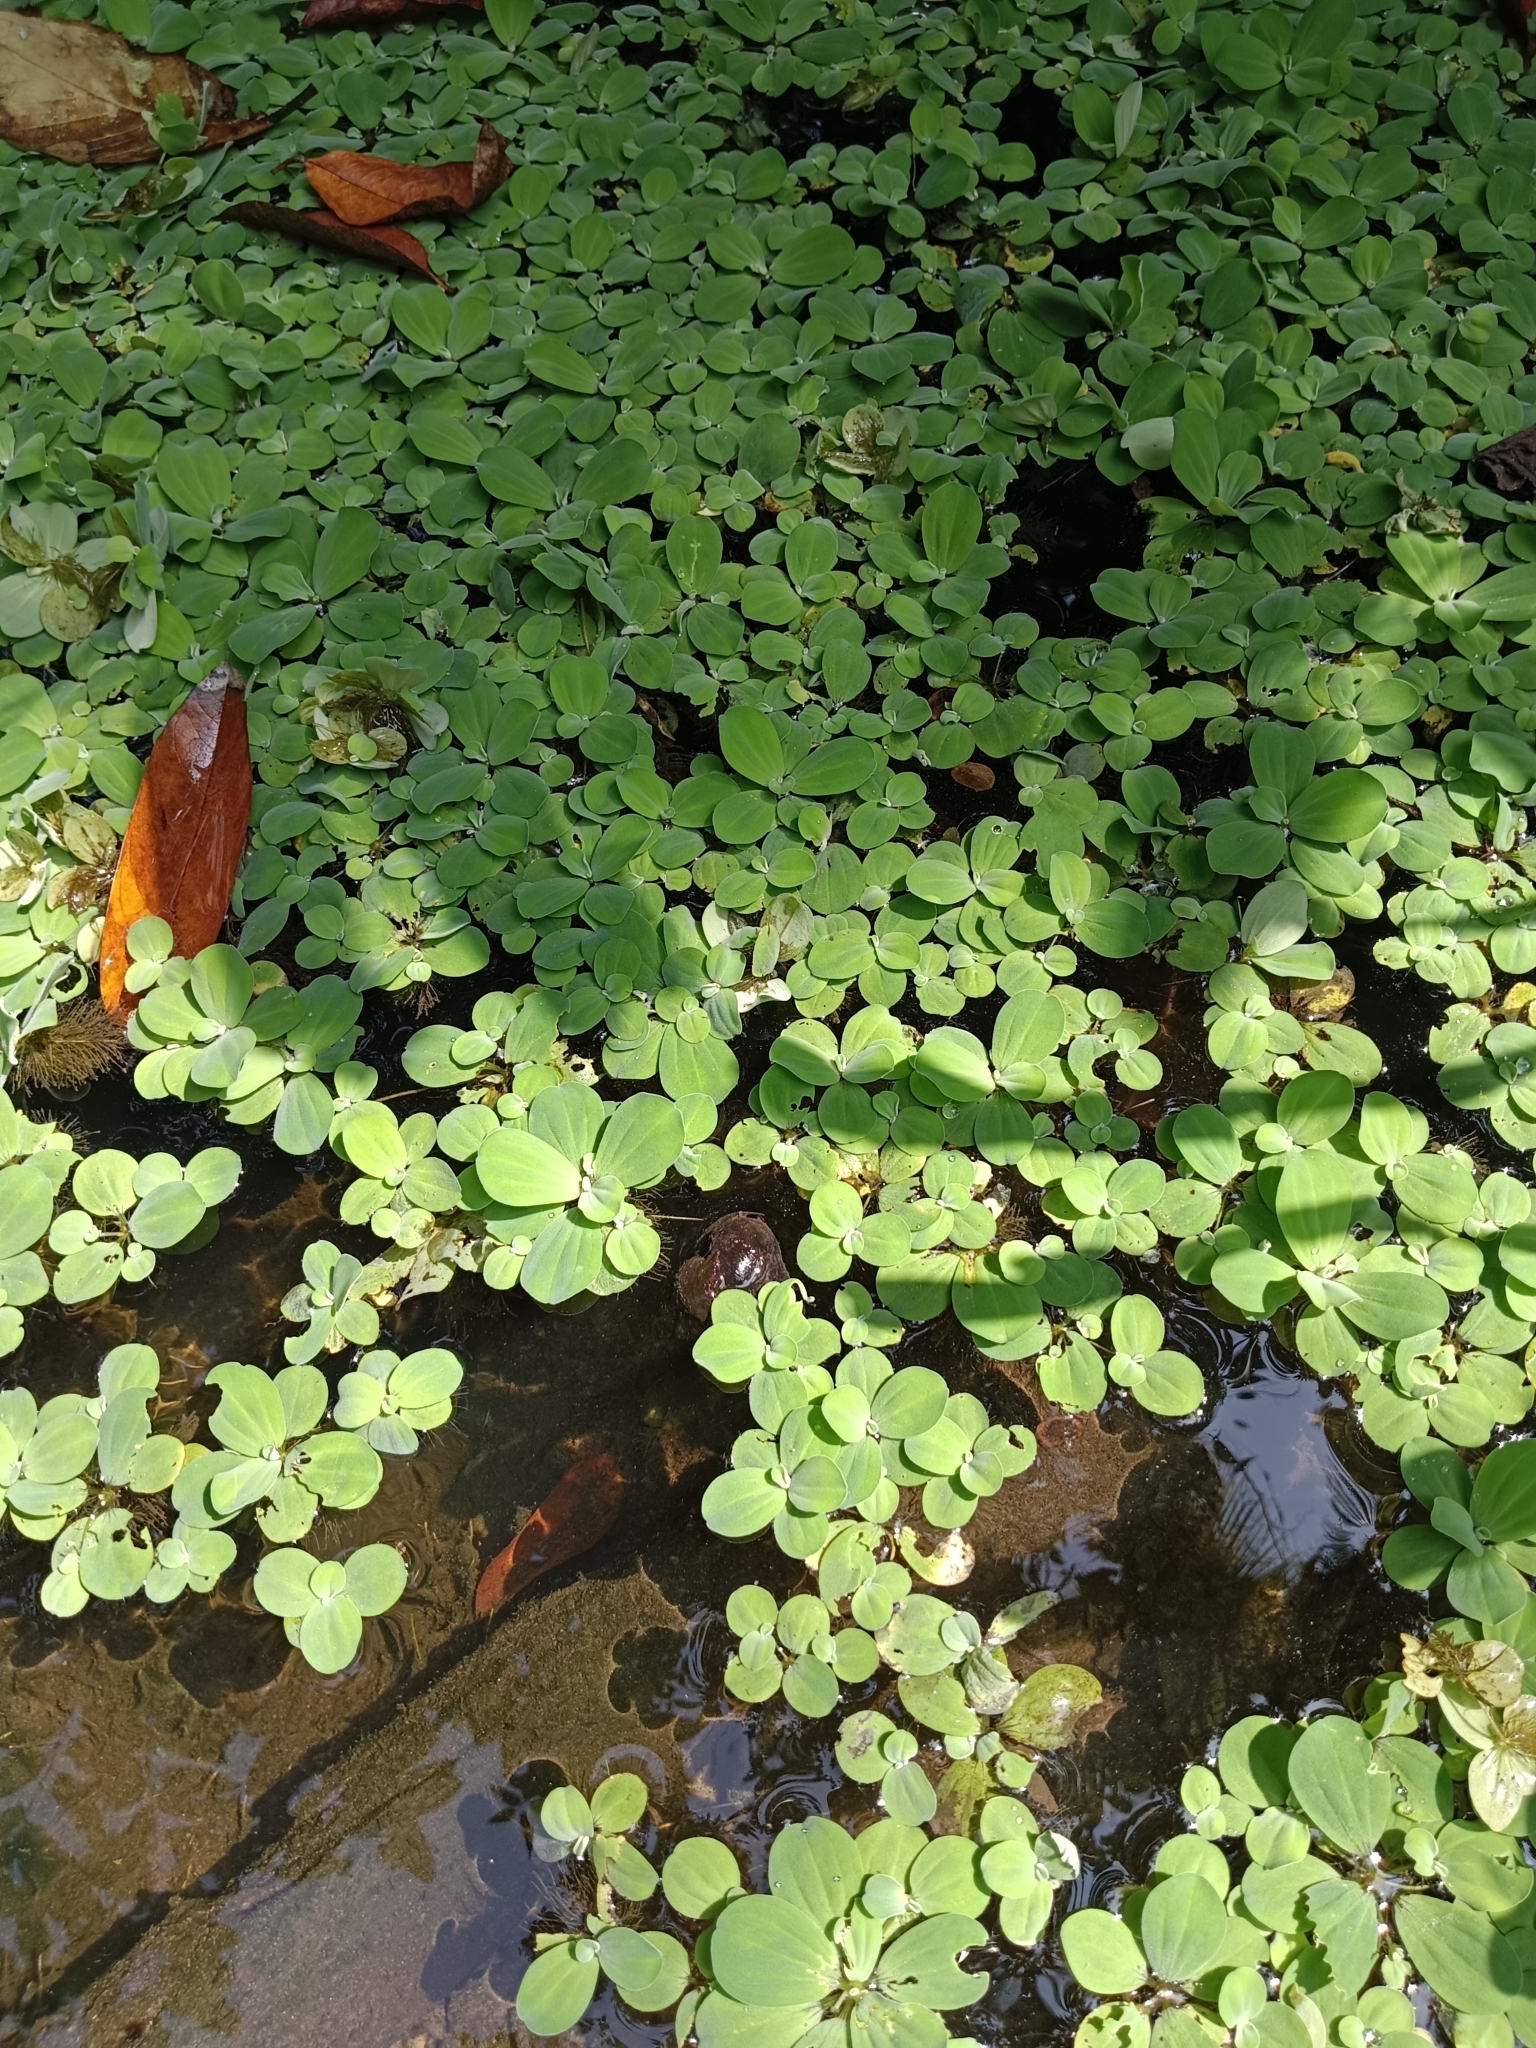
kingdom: Plantae
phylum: Tracheophyta
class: Liliopsida
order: Alismatales
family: Araceae
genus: Pistia
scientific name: Pistia stratiotes
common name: Water lettuce
